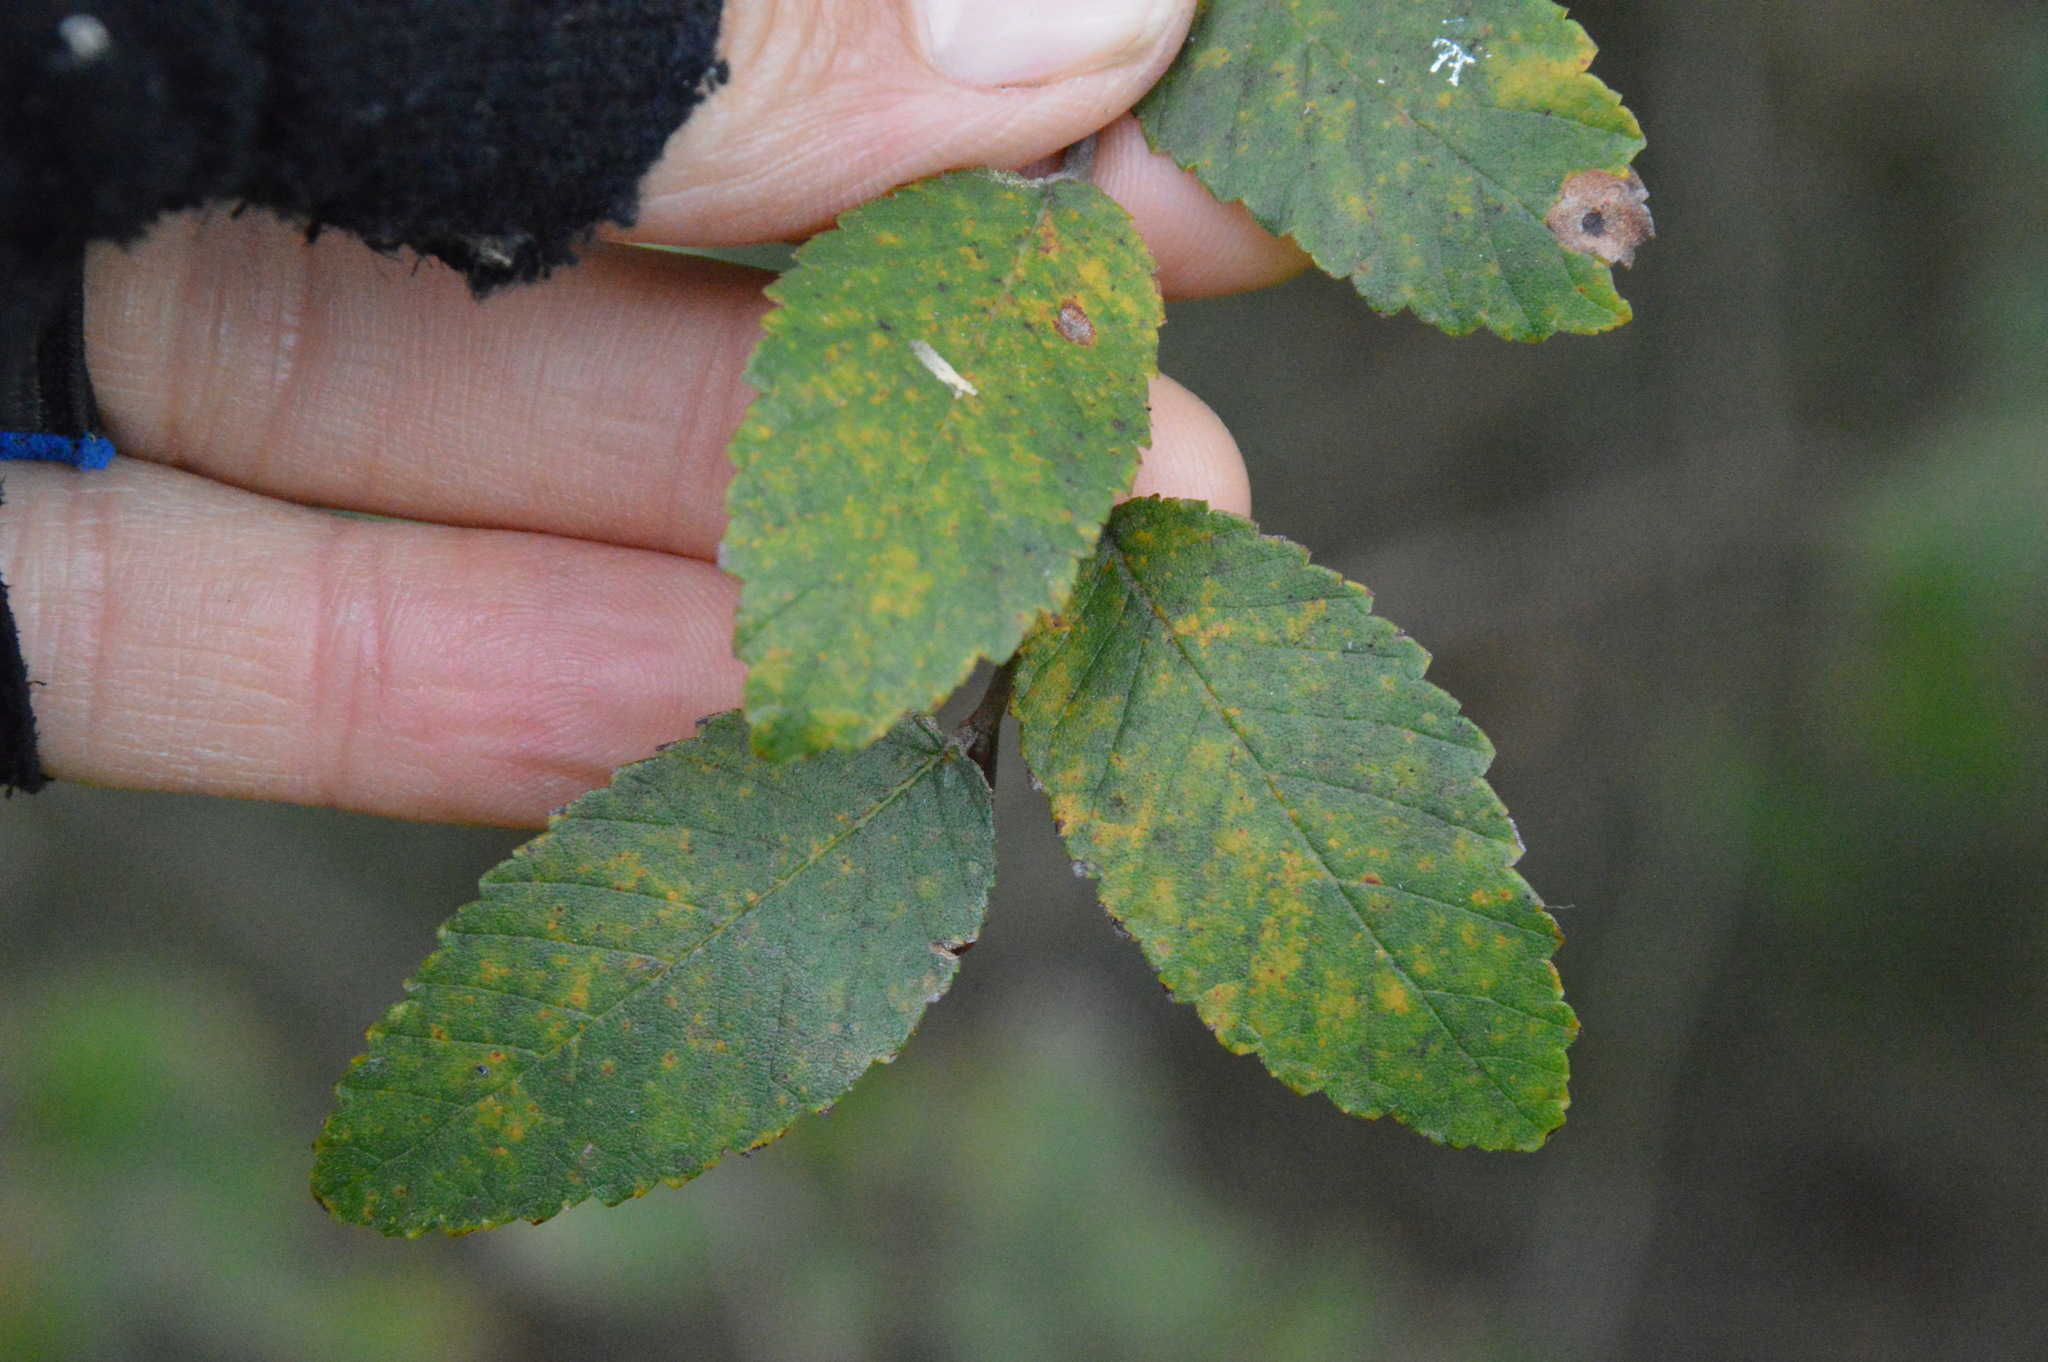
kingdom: Plantae
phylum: Tracheophyta
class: Magnoliopsida
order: Rosales
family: Ulmaceae
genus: Ulmus
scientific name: Ulmus crassifolia
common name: Basket elm
